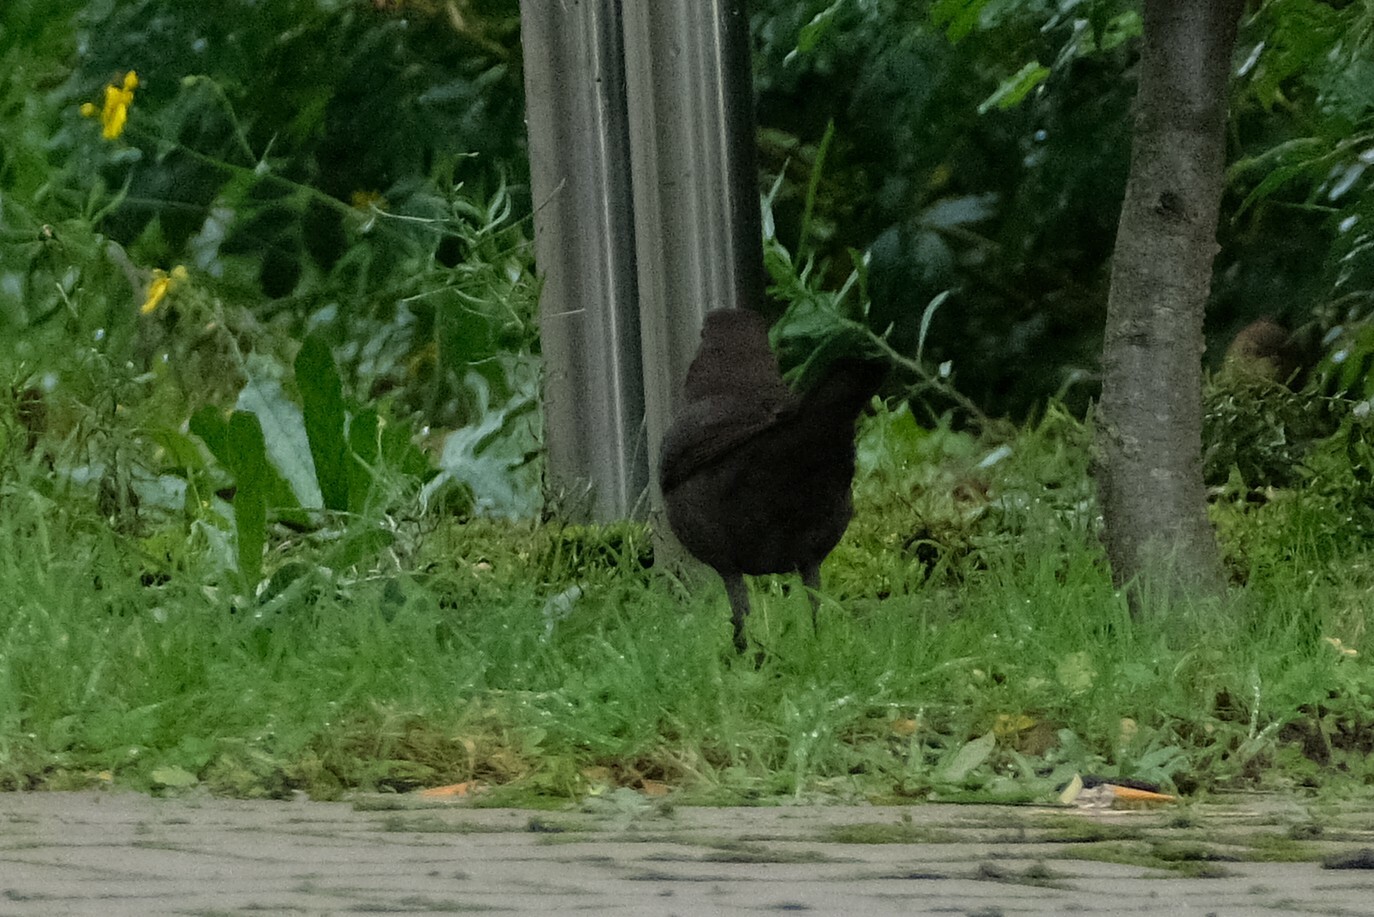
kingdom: Animalia
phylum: Chordata
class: Aves
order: Passeriformes
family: Turdidae
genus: Turdus
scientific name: Turdus merula
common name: Common blackbird
